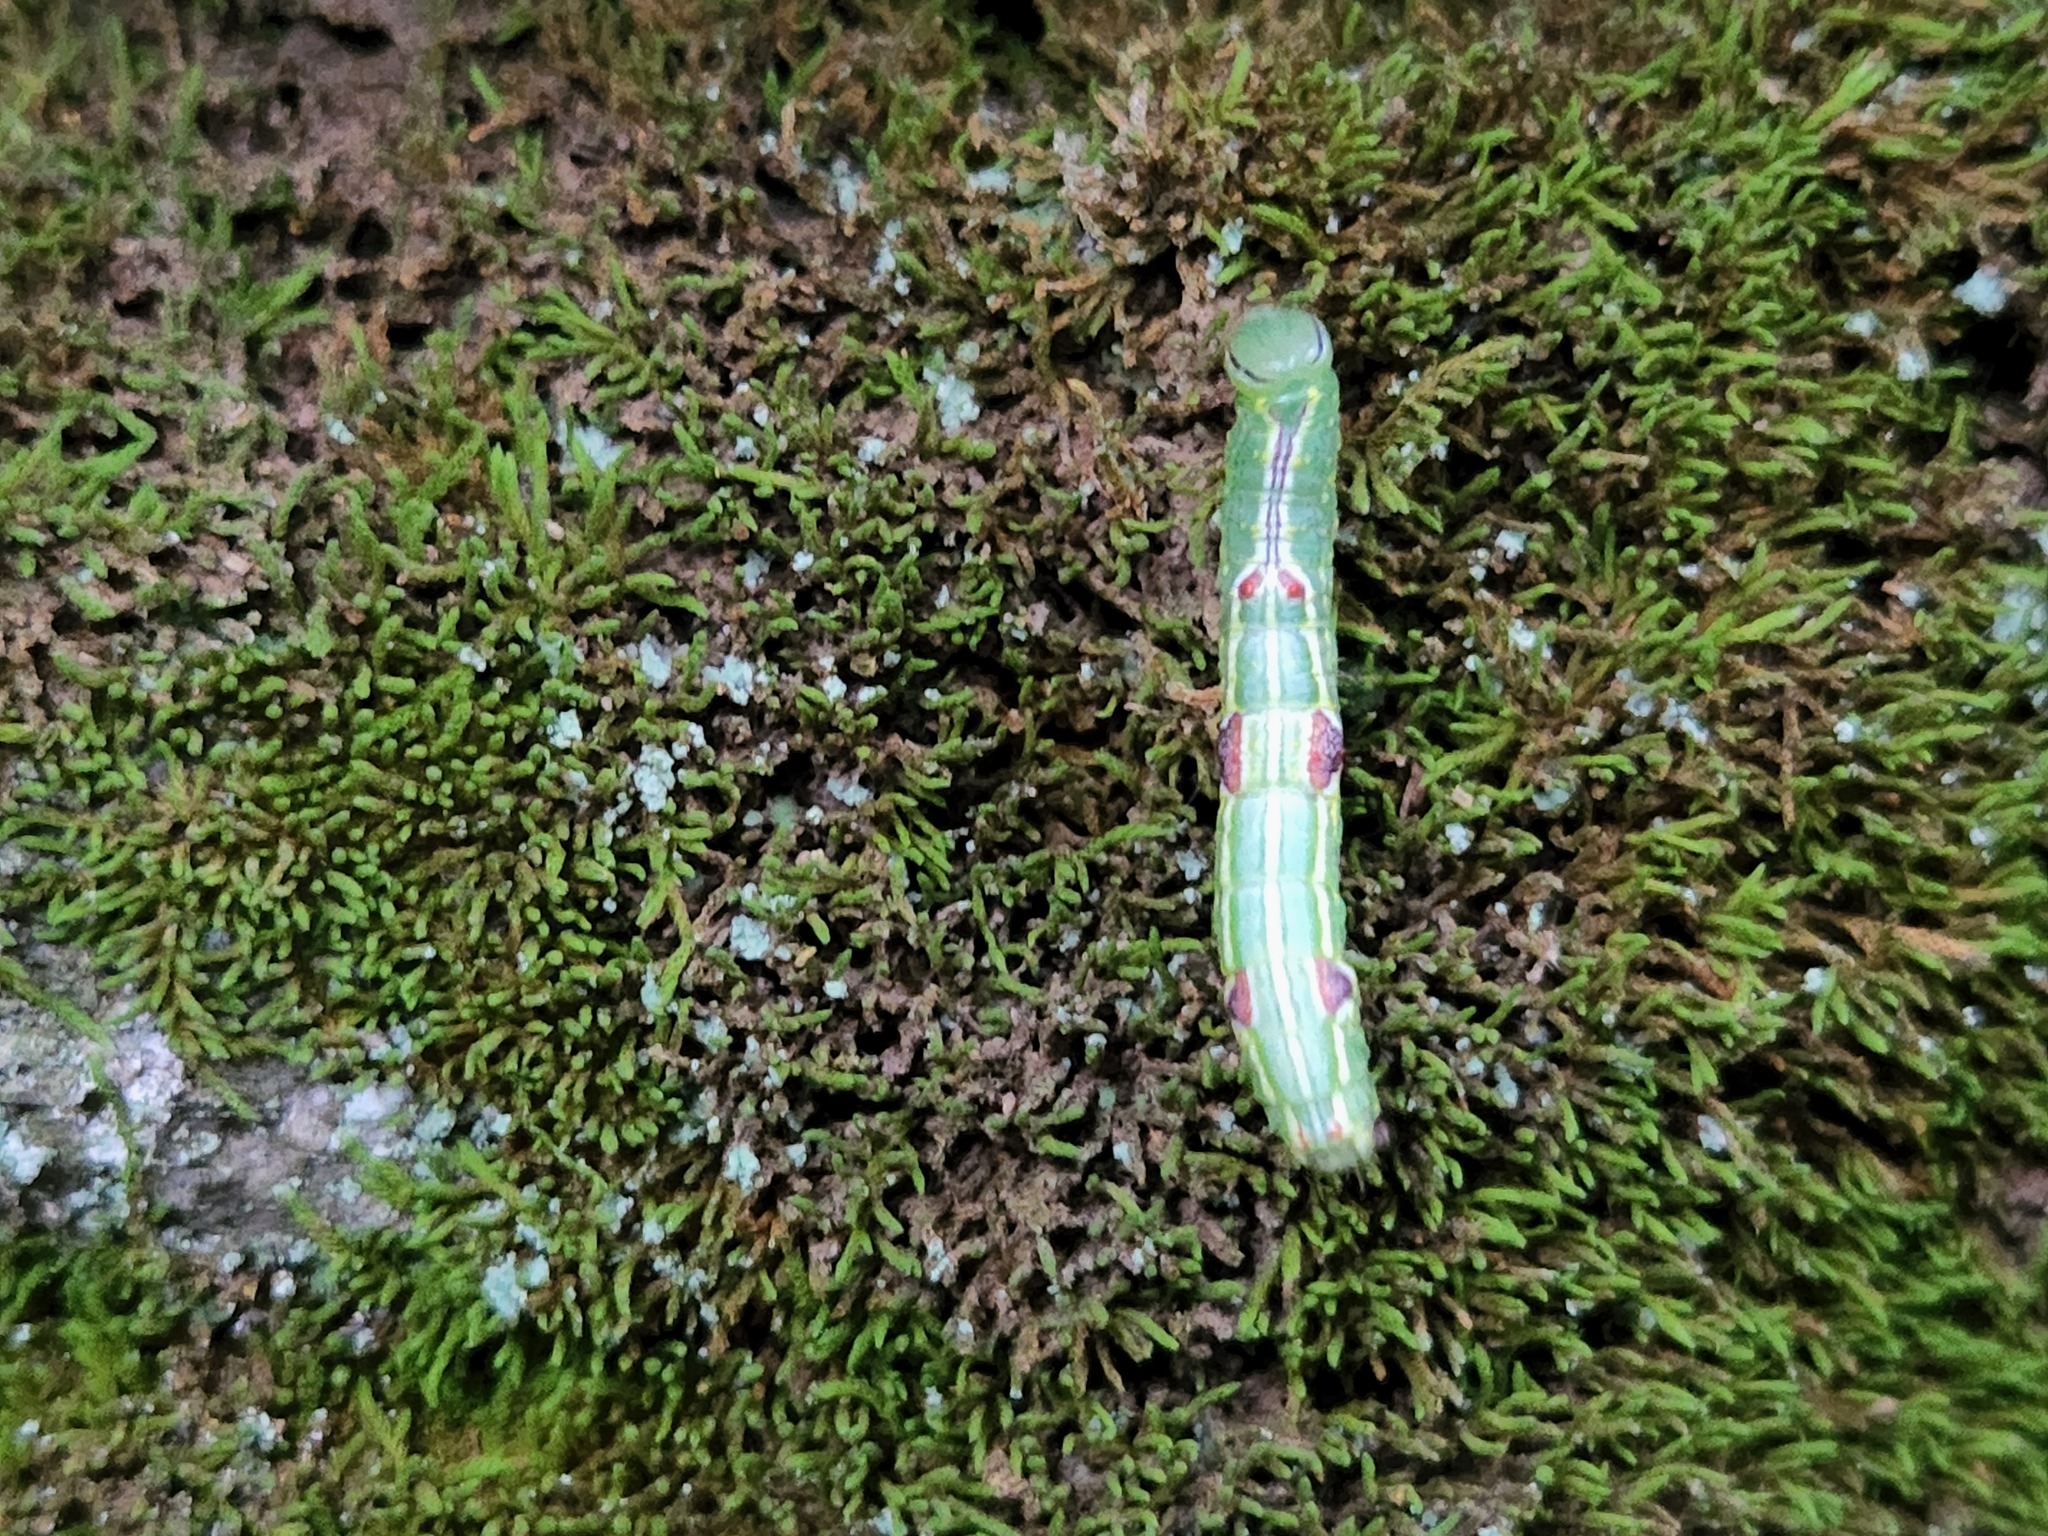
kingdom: Animalia
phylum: Arthropoda
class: Insecta
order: Lepidoptera
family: Notodontidae
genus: Lochmaeus
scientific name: Lochmaeus bilineata
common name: Double-lined prominent
